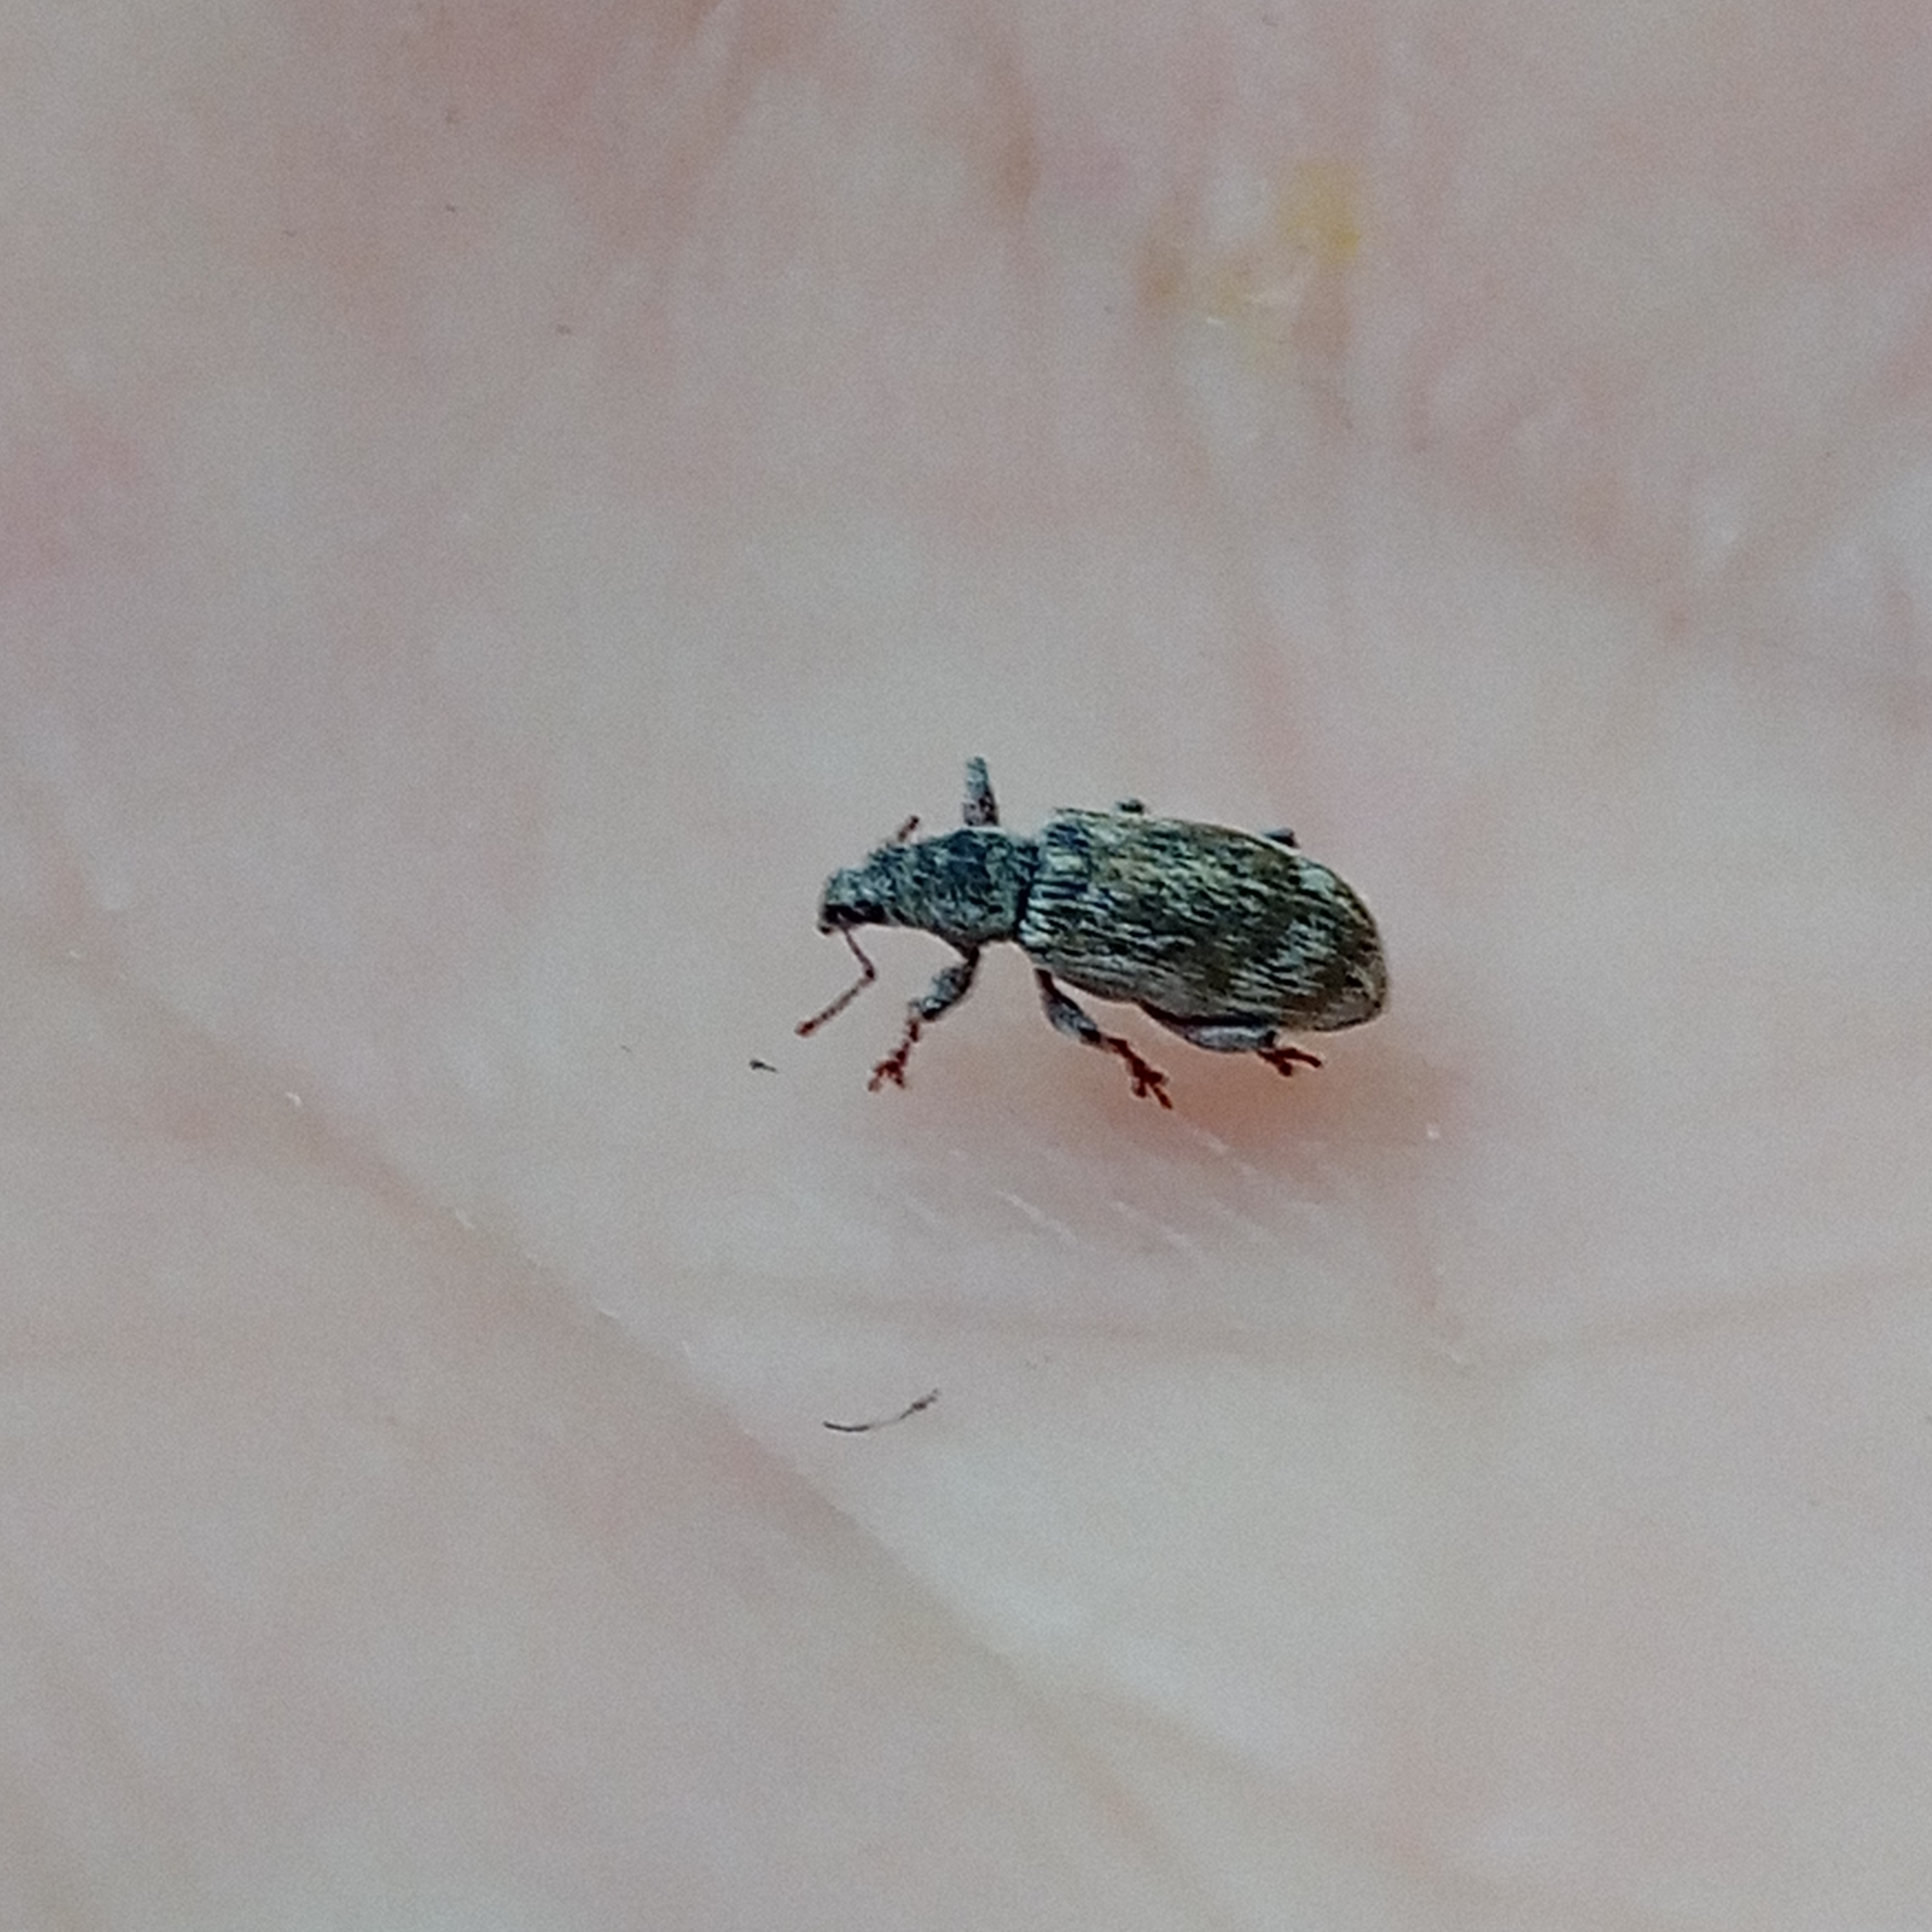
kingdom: Animalia
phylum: Arthropoda
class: Insecta
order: Coleoptera
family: Curculionidae
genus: Polydrusus
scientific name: Polydrusus tereticollis
